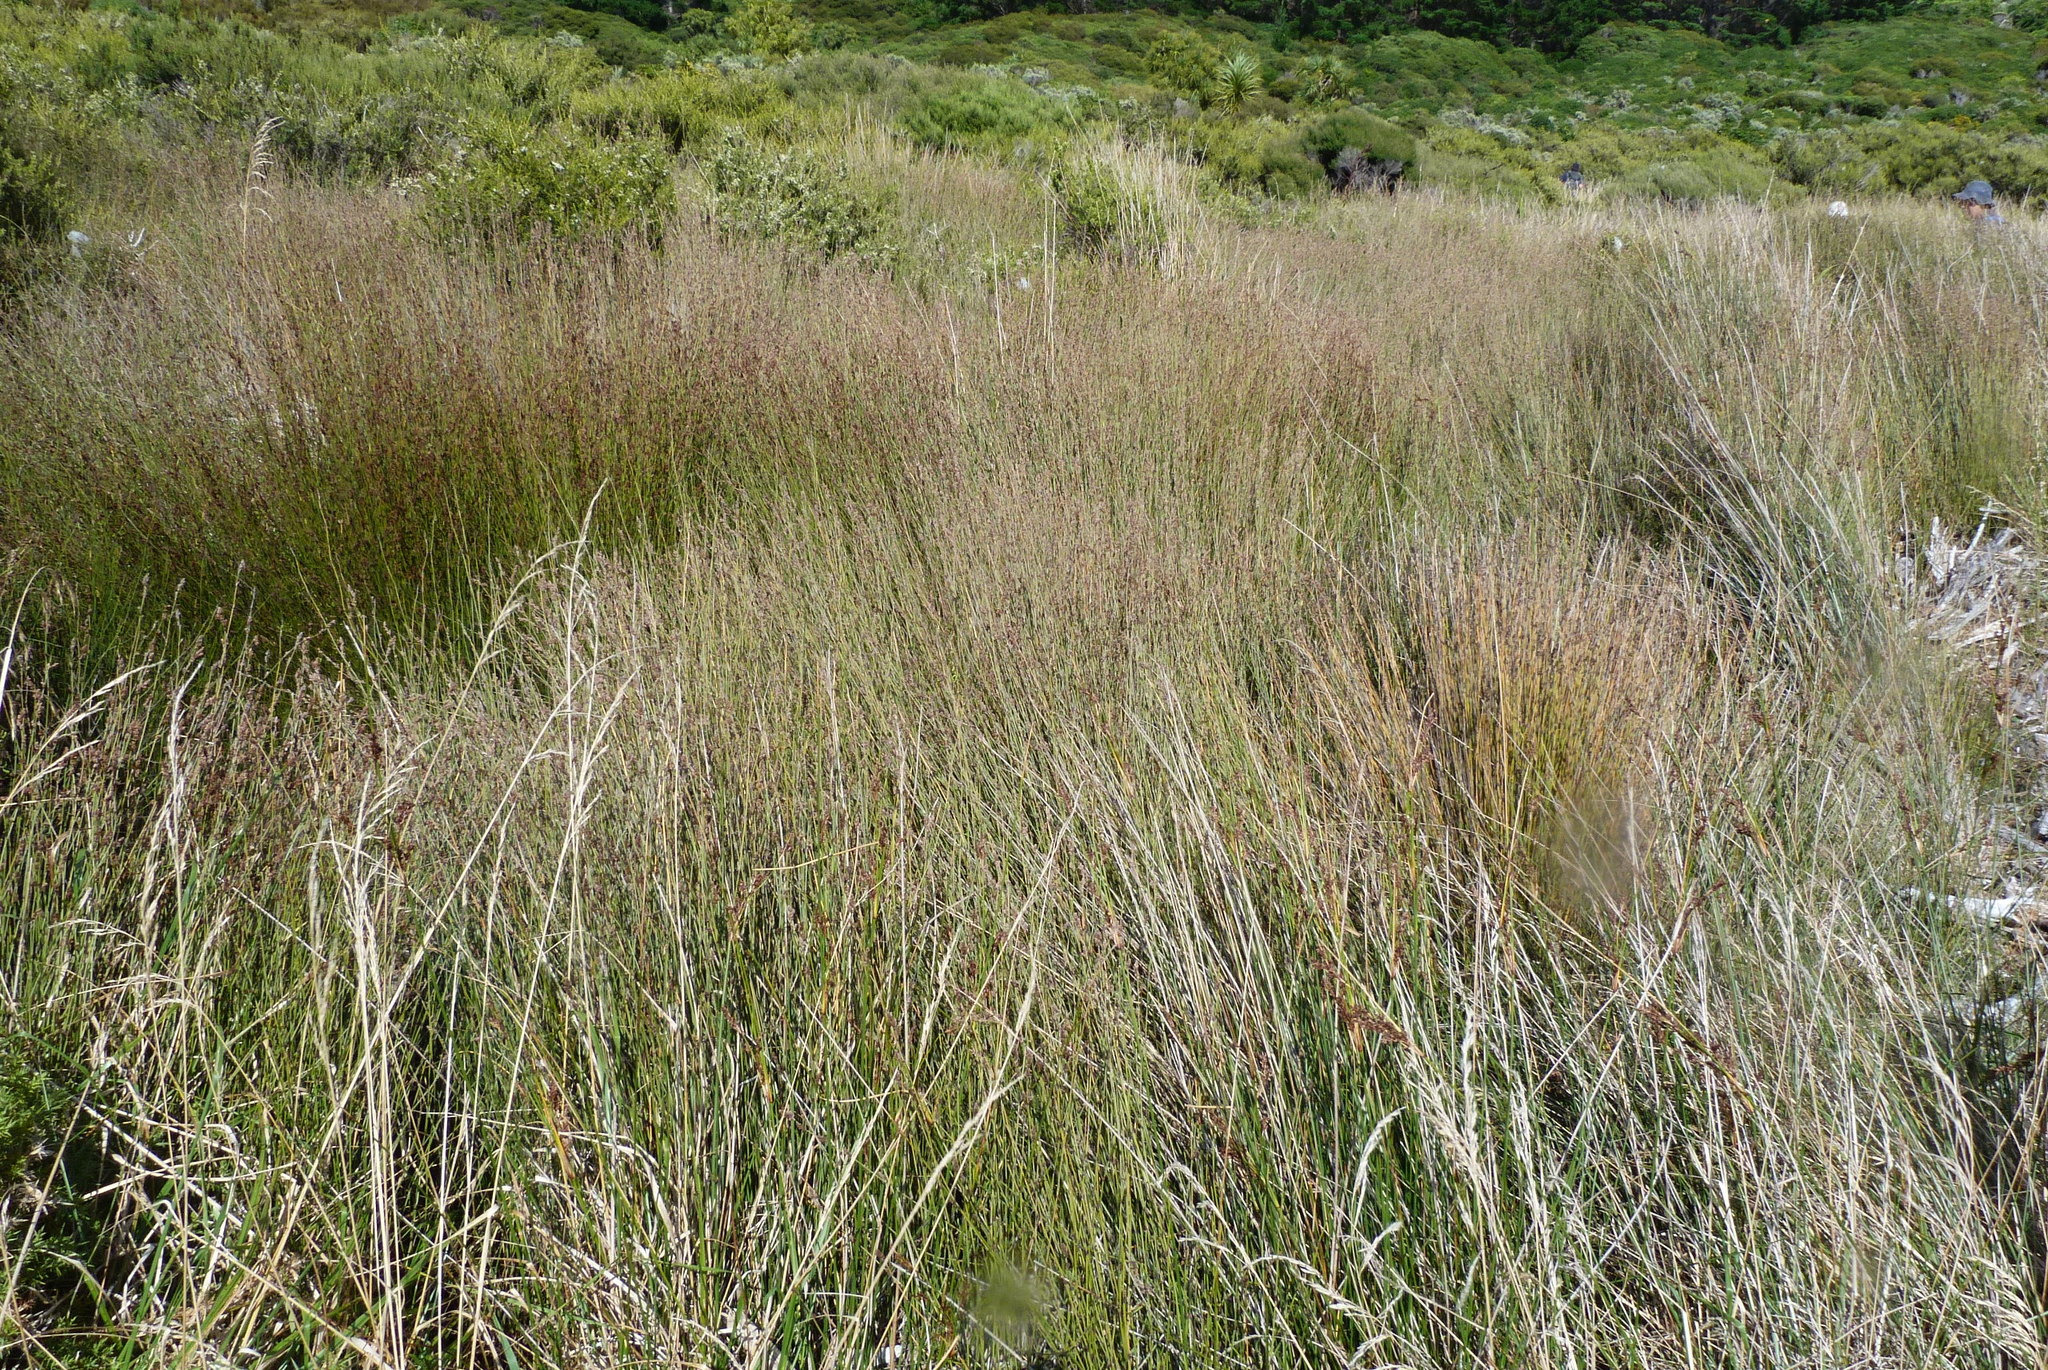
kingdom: Plantae
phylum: Tracheophyta
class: Liliopsida
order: Poales
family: Restionaceae
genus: Apodasmia
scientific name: Apodasmia similis
